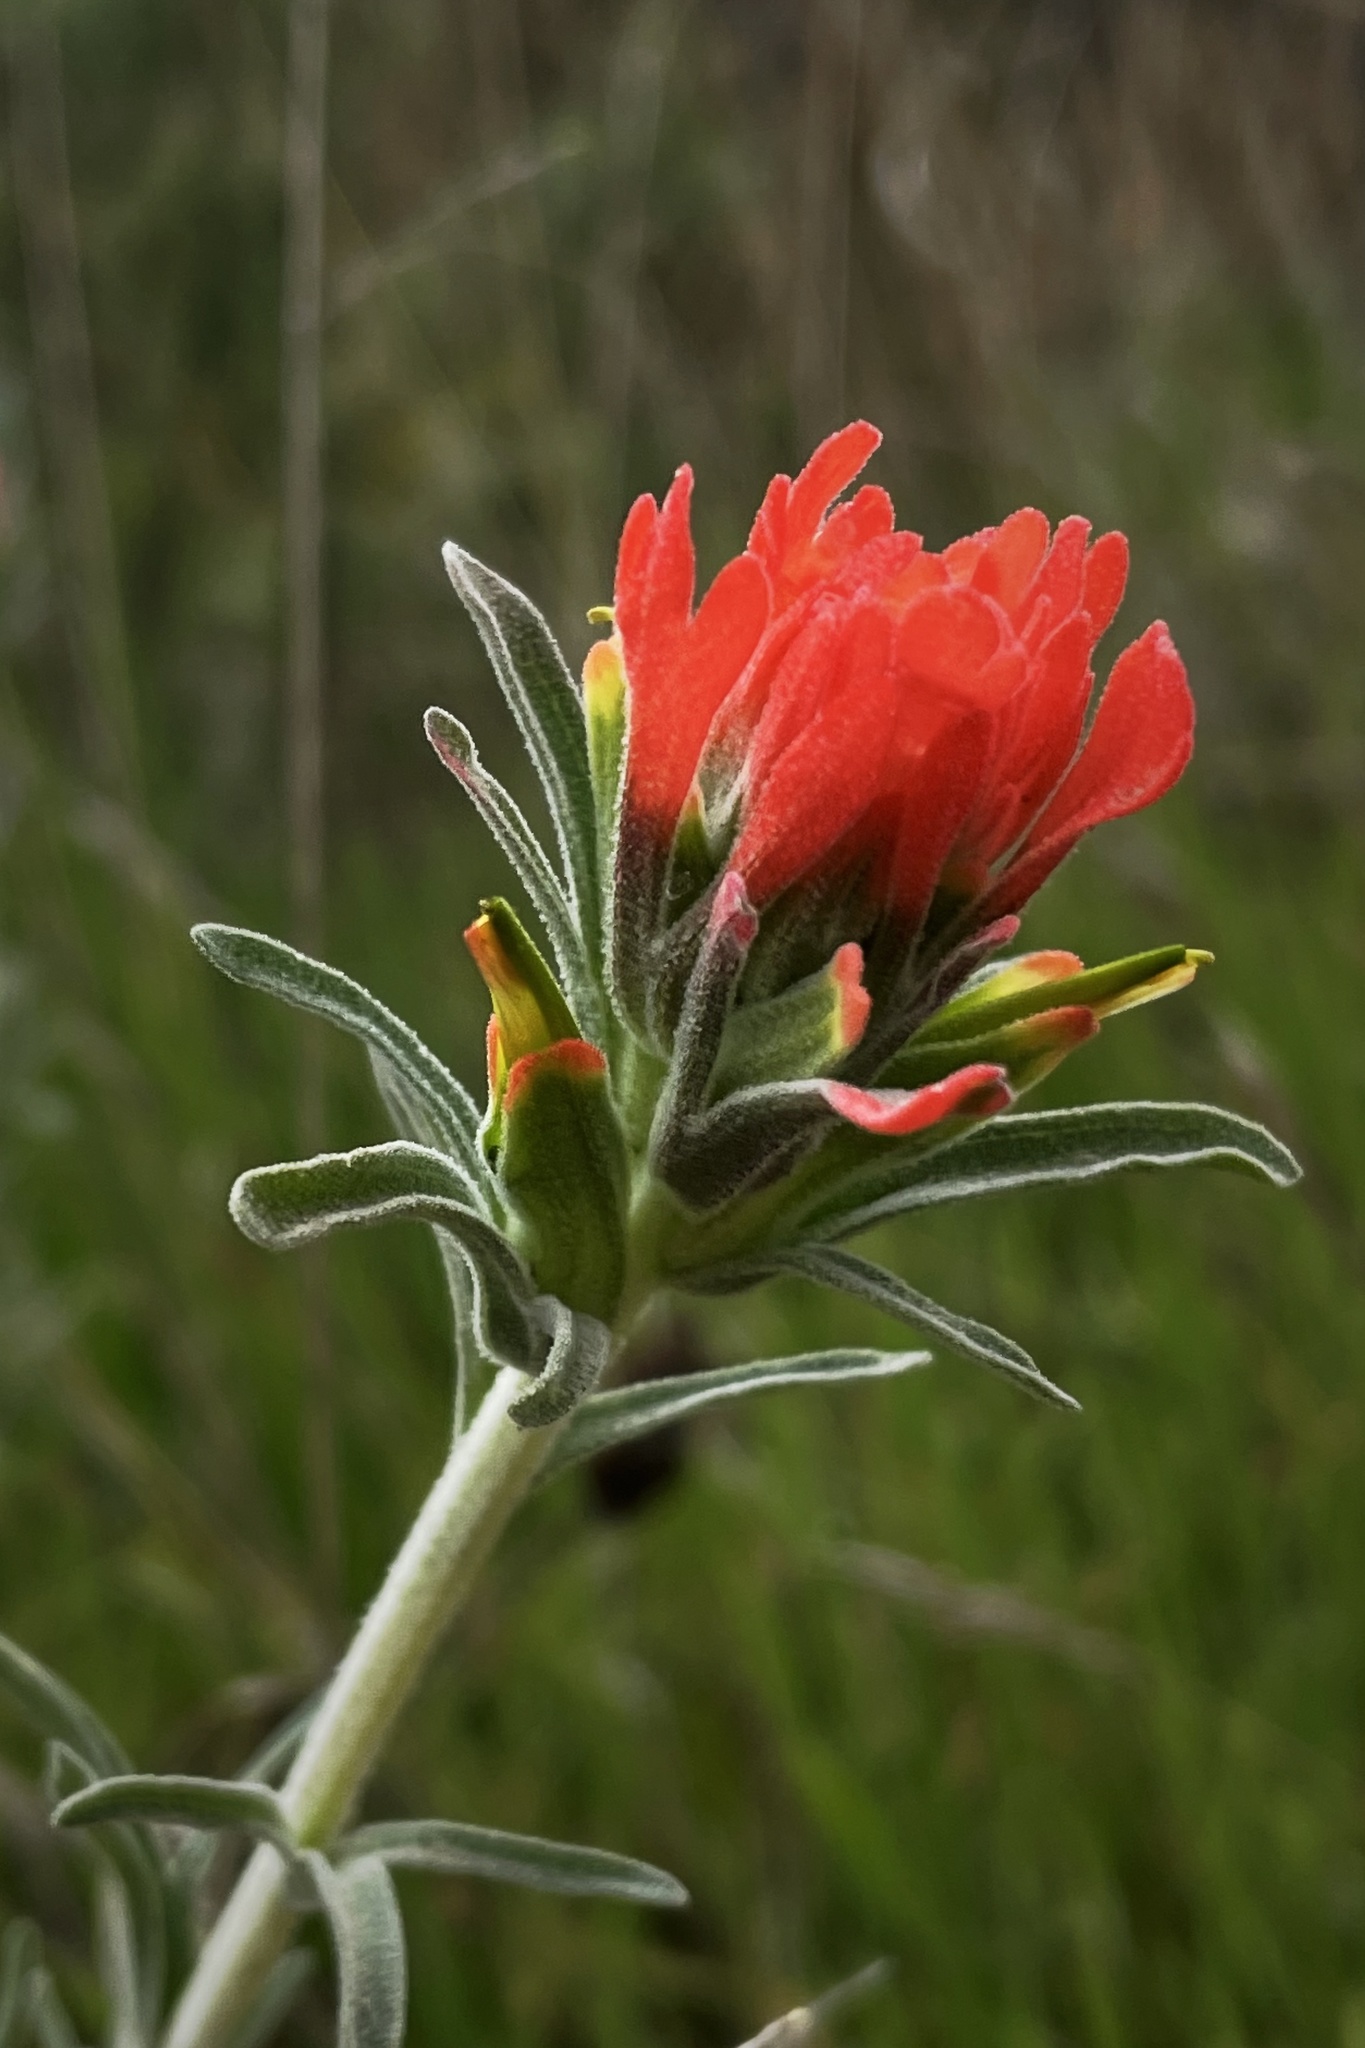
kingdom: Plantae
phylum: Tracheophyta
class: Magnoliopsida
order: Lamiales
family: Orobanchaceae
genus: Castilleja
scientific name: Castilleja foliolosa
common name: Woolly indian paintbrush
